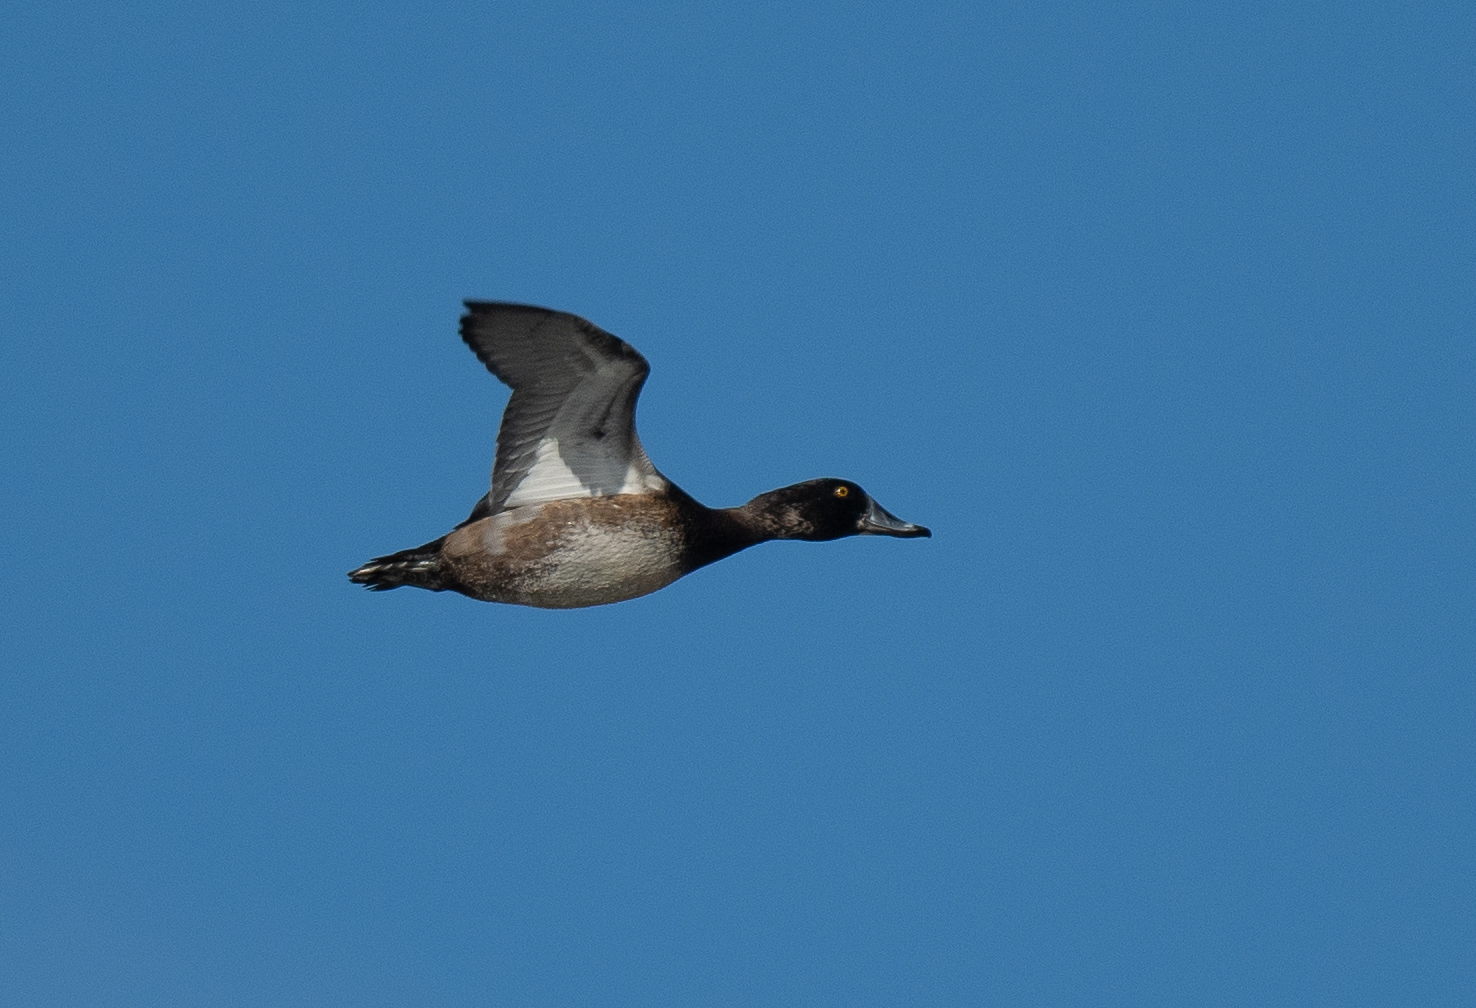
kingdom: Animalia
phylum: Chordata
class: Aves
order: Anseriformes
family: Anatidae
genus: Aythya
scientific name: Aythya affinis
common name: Lesser scaup
